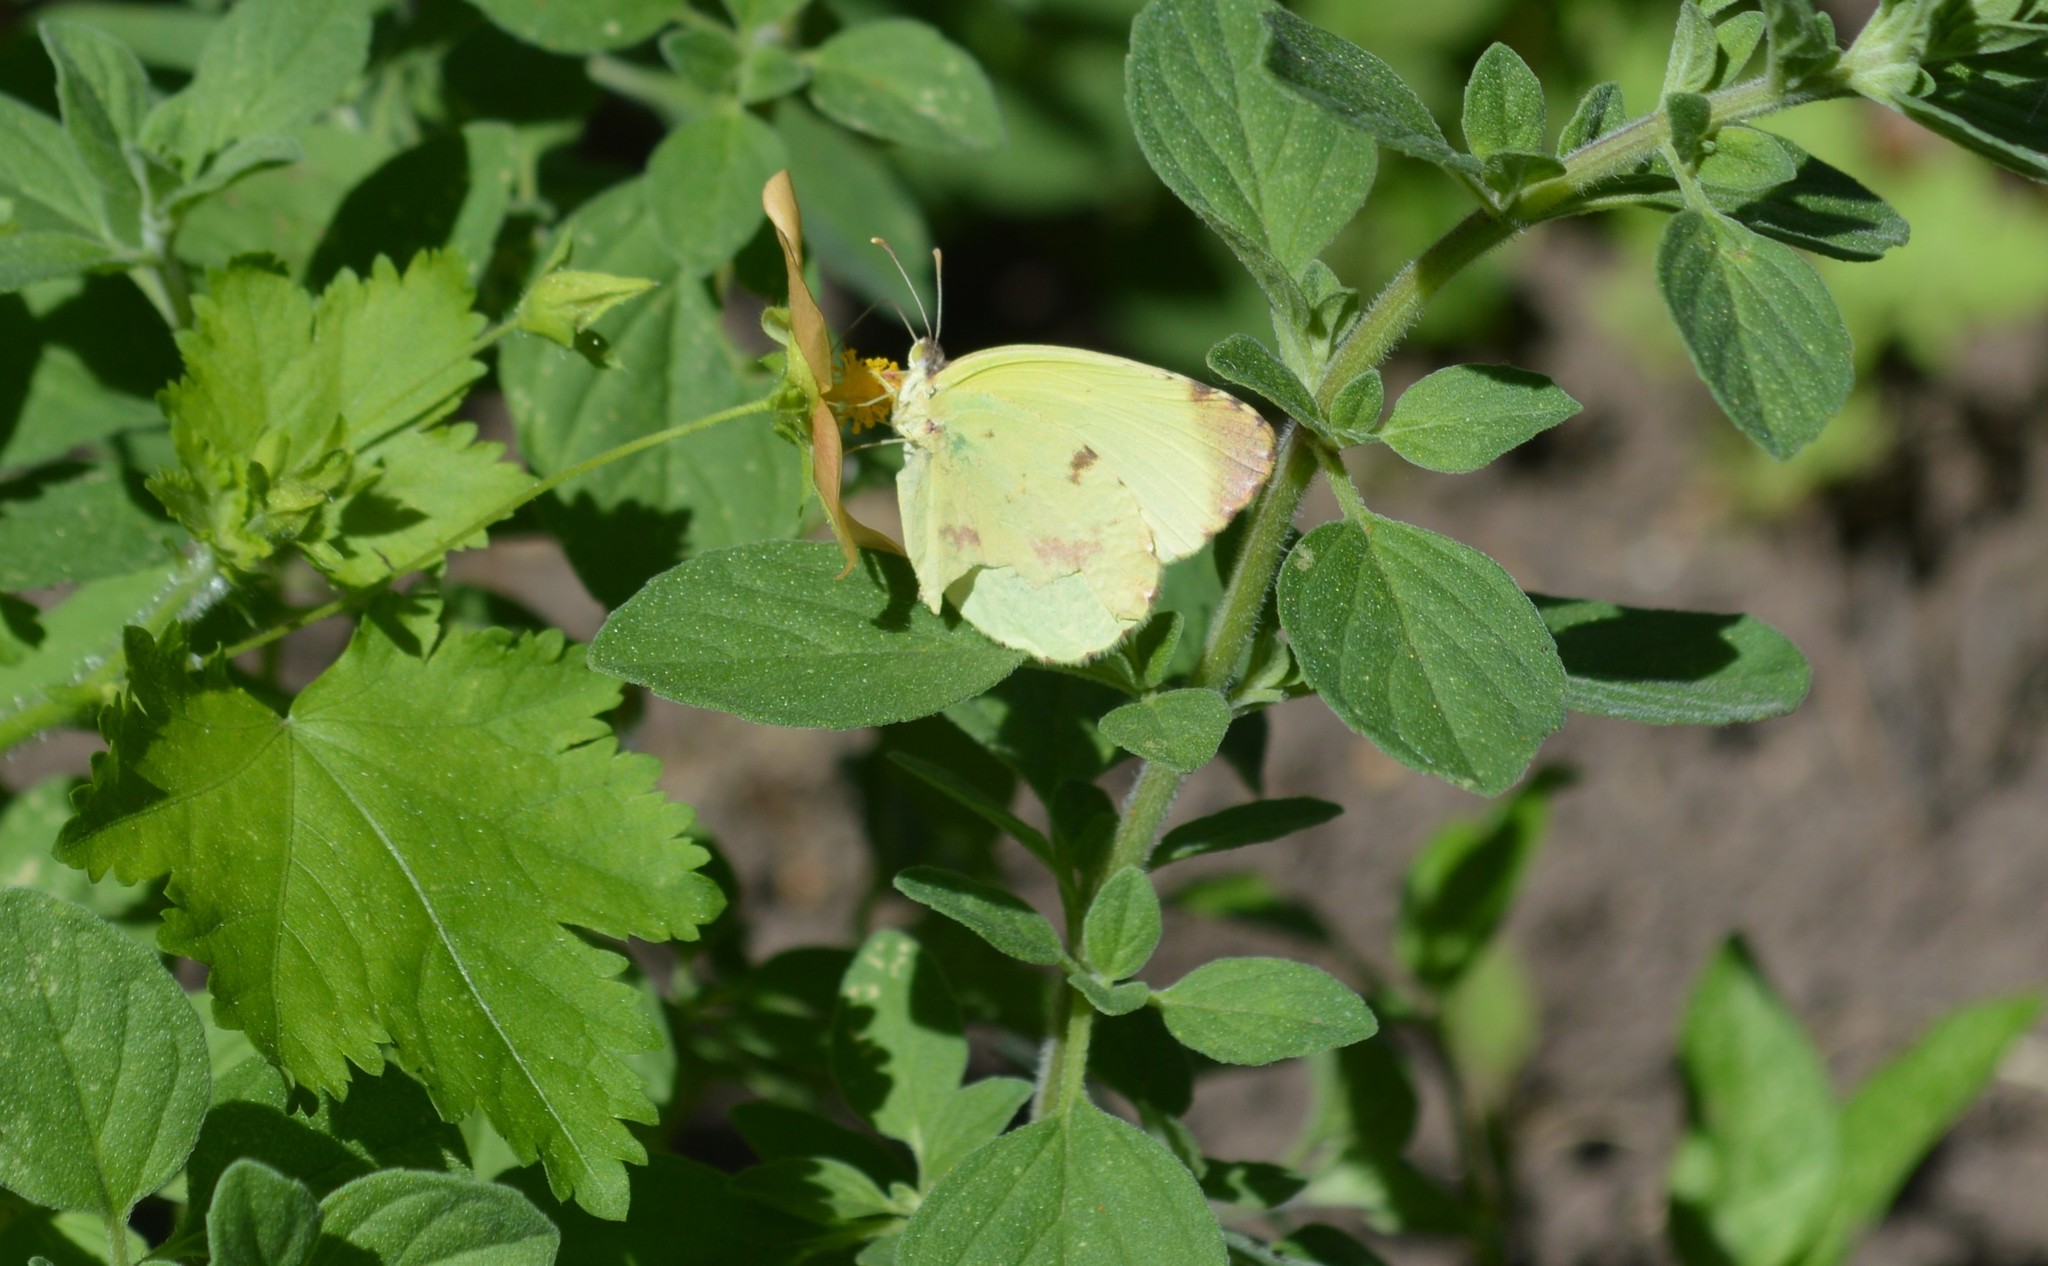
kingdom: Animalia
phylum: Arthropoda
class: Insecta
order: Lepidoptera
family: Pieridae
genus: Teriocolias
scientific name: Teriocolias
